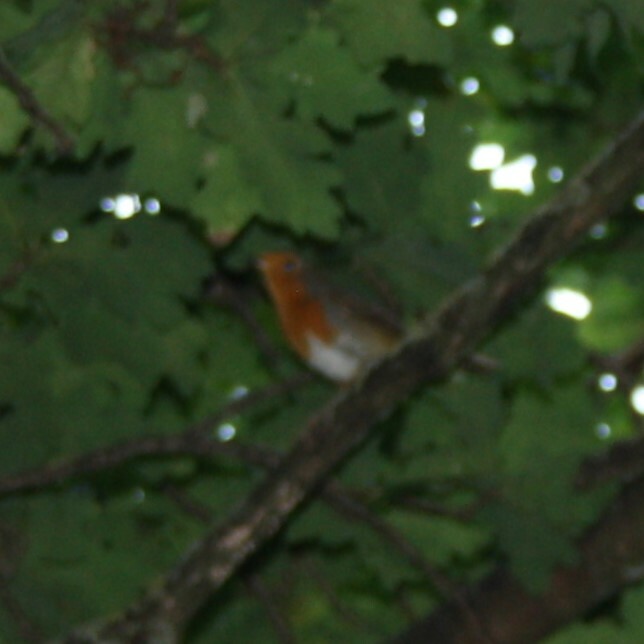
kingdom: Animalia
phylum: Chordata
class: Aves
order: Passeriformes
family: Muscicapidae
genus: Erithacus
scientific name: Erithacus rubecula
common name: European robin
